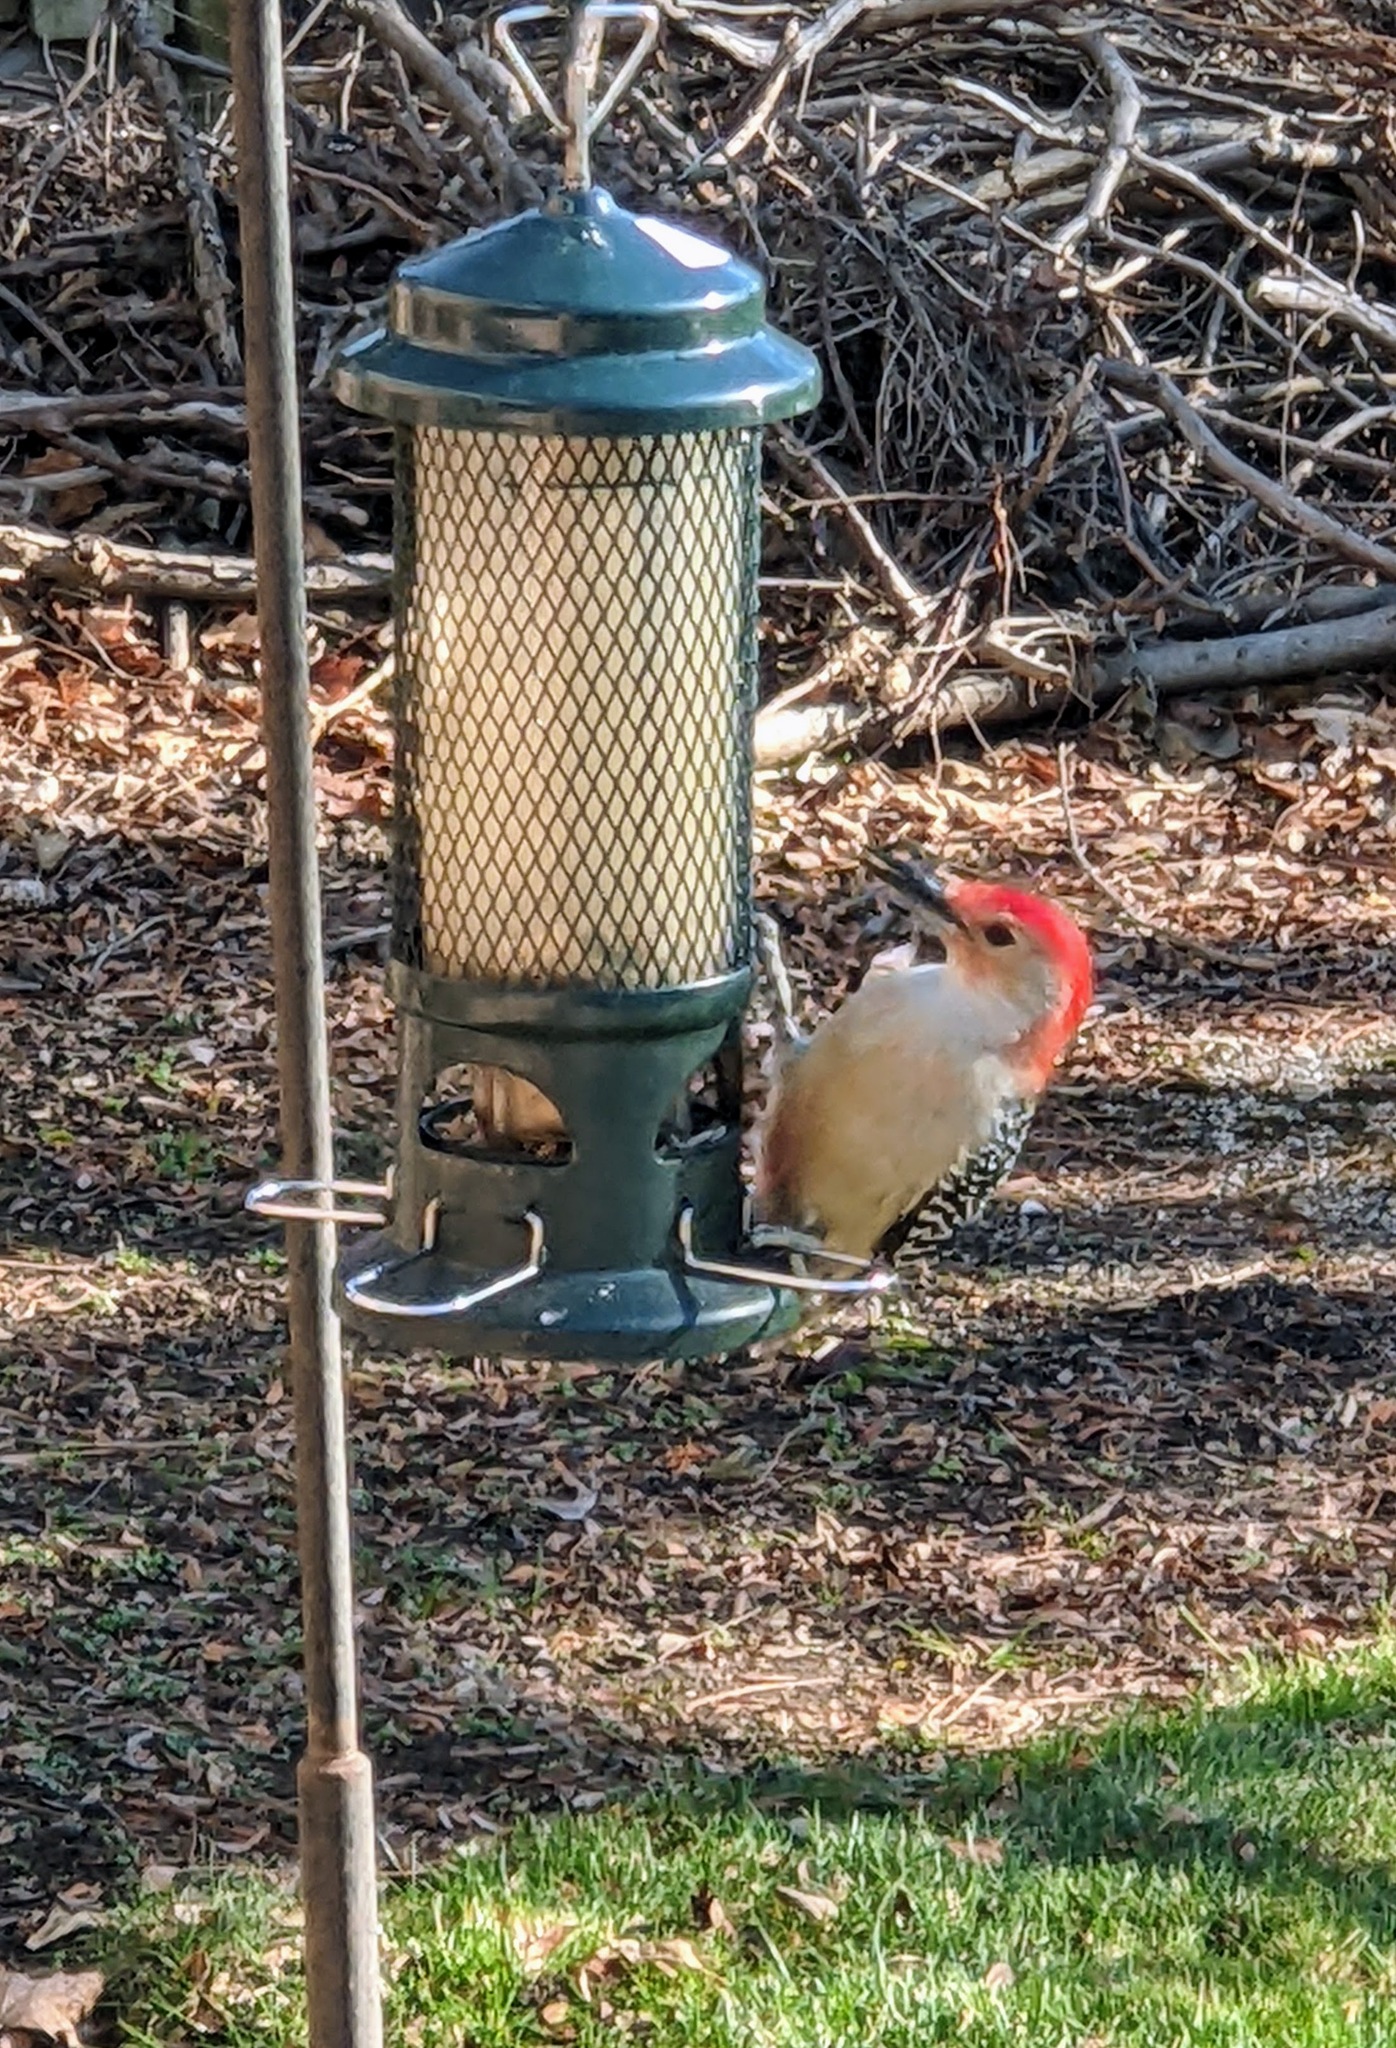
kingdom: Animalia
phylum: Chordata
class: Aves
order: Piciformes
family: Picidae
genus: Melanerpes
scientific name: Melanerpes carolinus
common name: Red-bellied woodpecker
